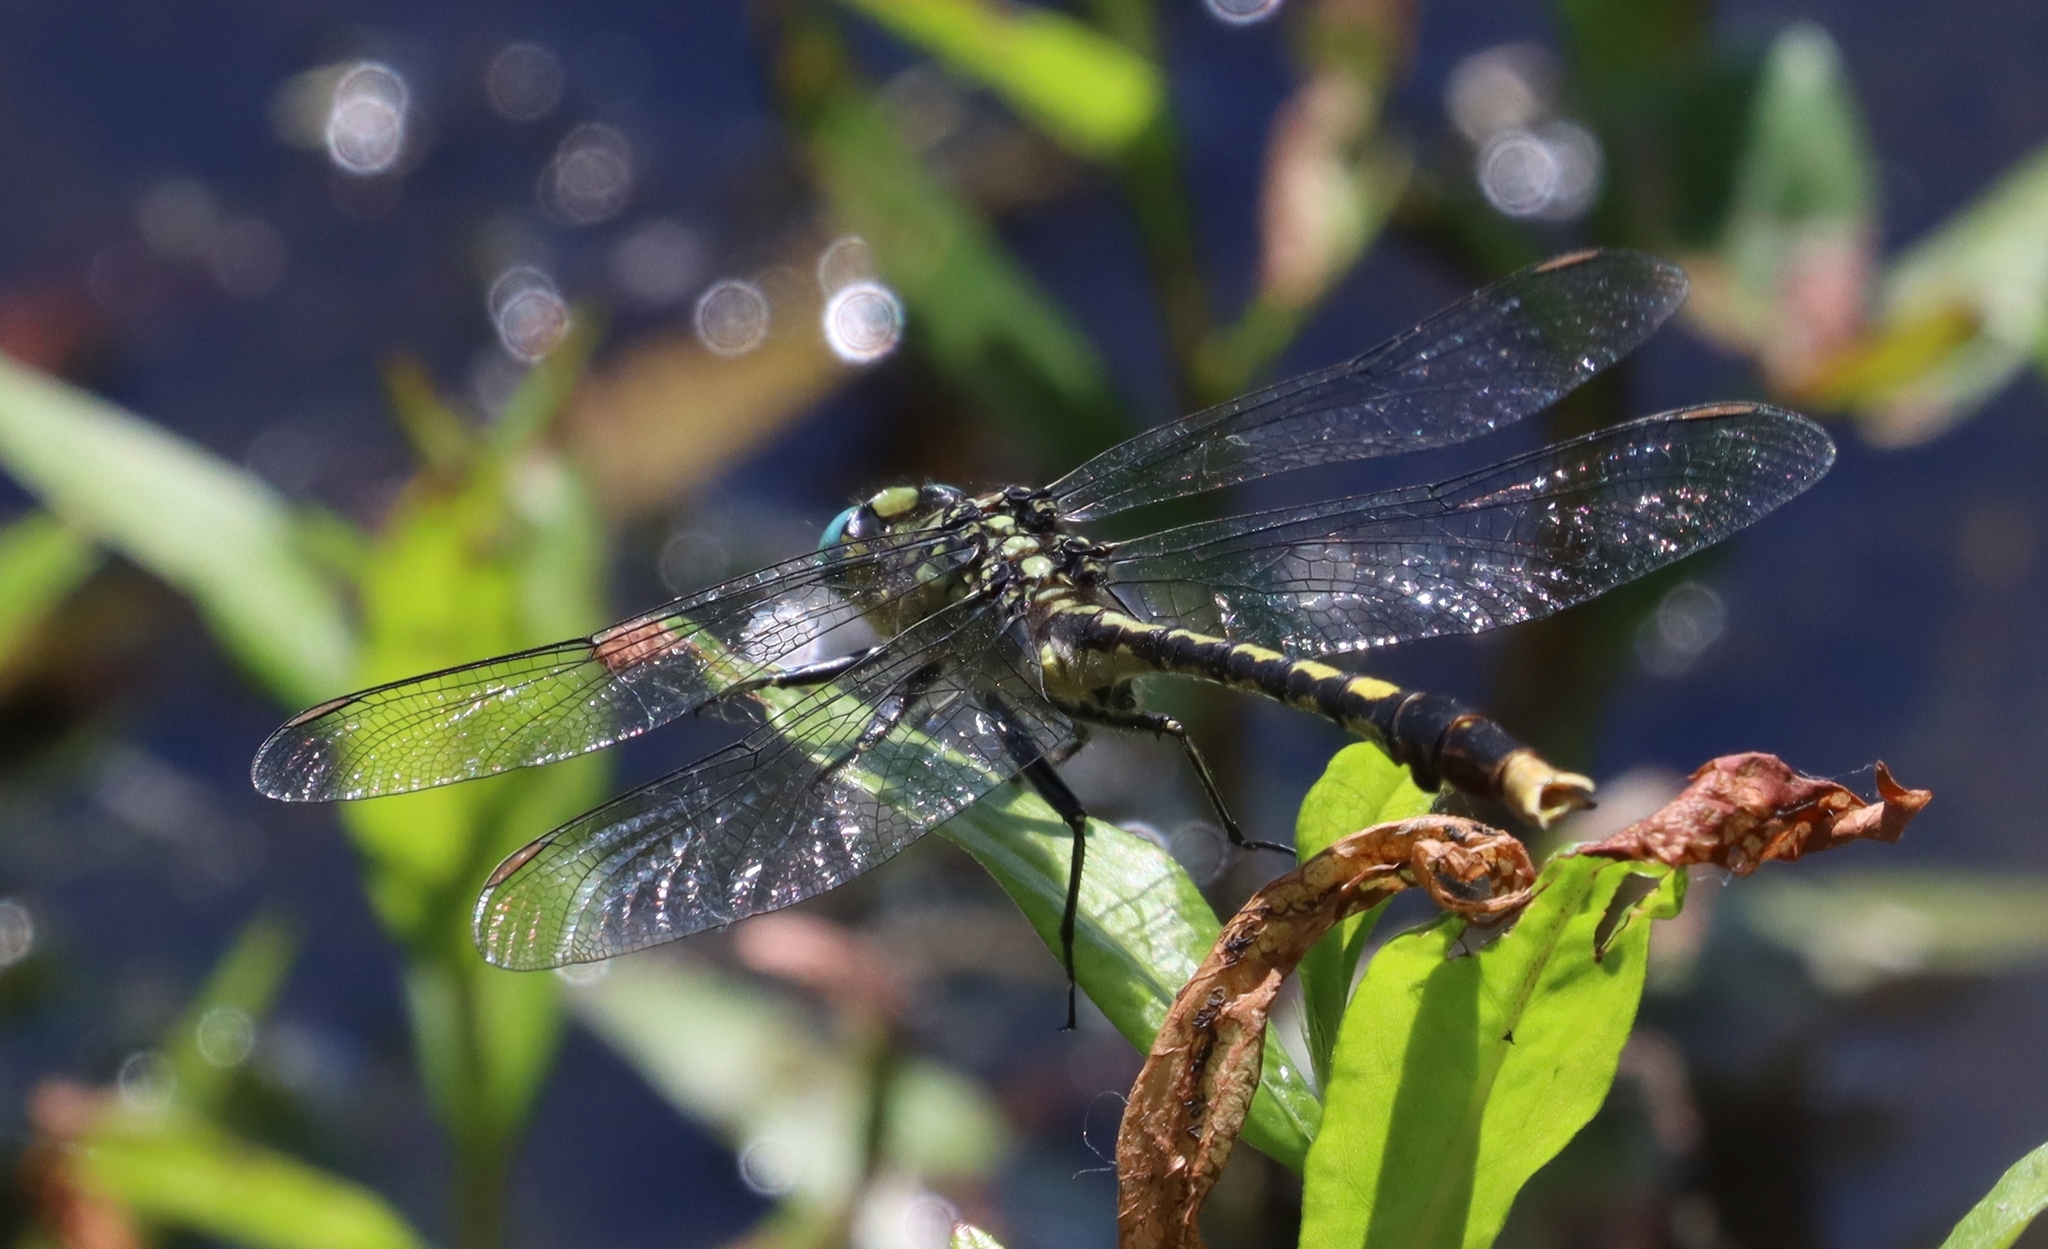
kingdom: Animalia
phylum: Arthropoda
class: Insecta
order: Odonata
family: Gomphidae
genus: Arigomphus
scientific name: Arigomphus villosipes
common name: Unicorn clubtail
